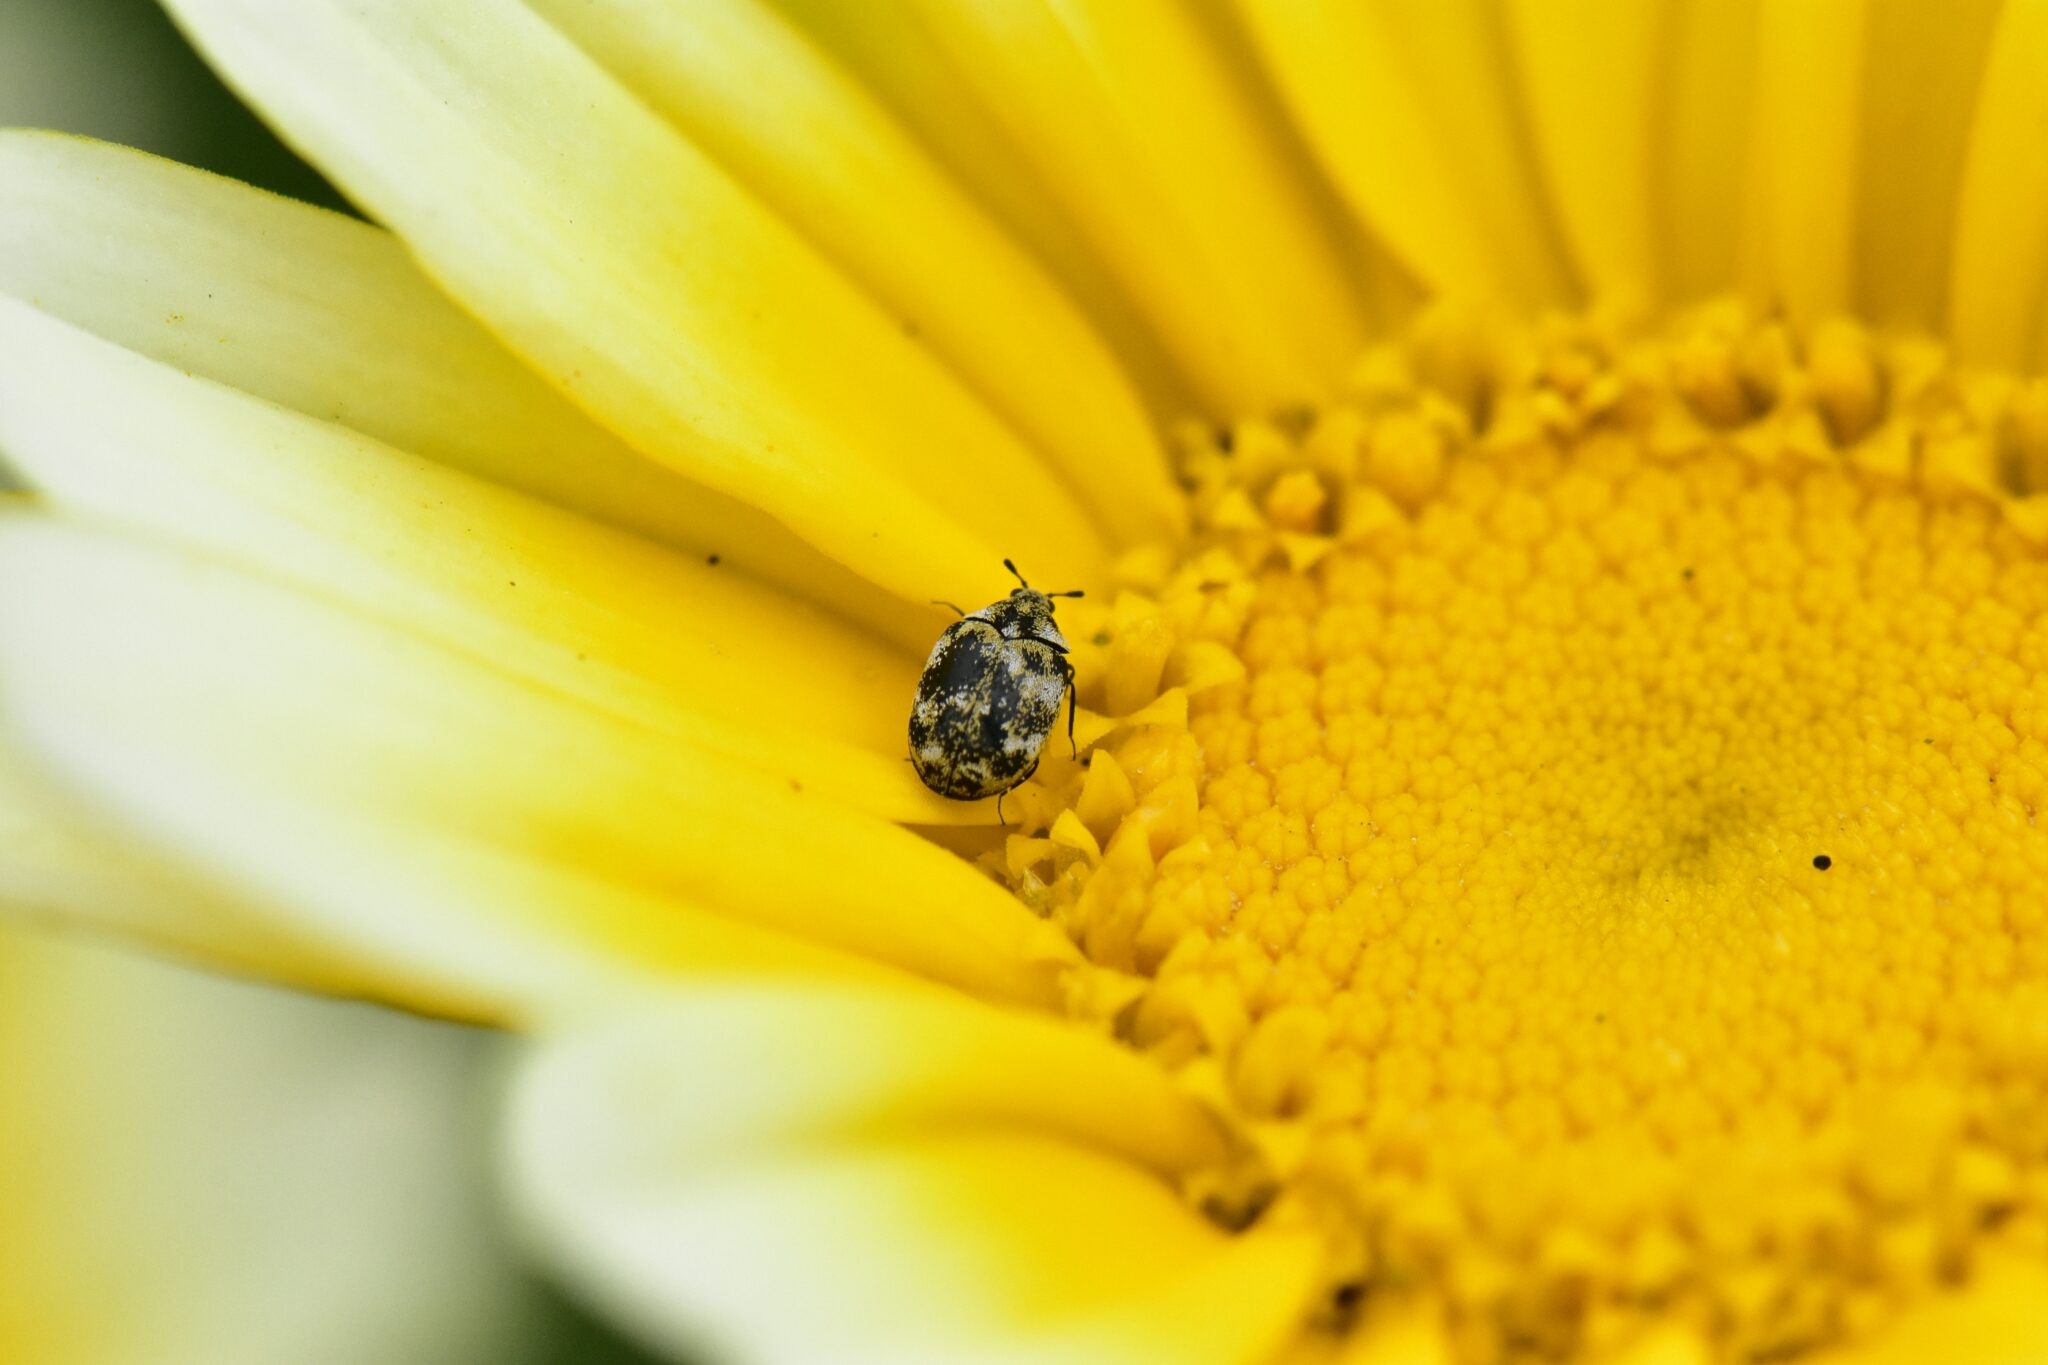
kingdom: Animalia
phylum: Arthropoda
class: Insecta
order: Coleoptera
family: Dermestidae
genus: Anthrenus
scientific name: Anthrenus verbasci
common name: Varied carpet beetle
